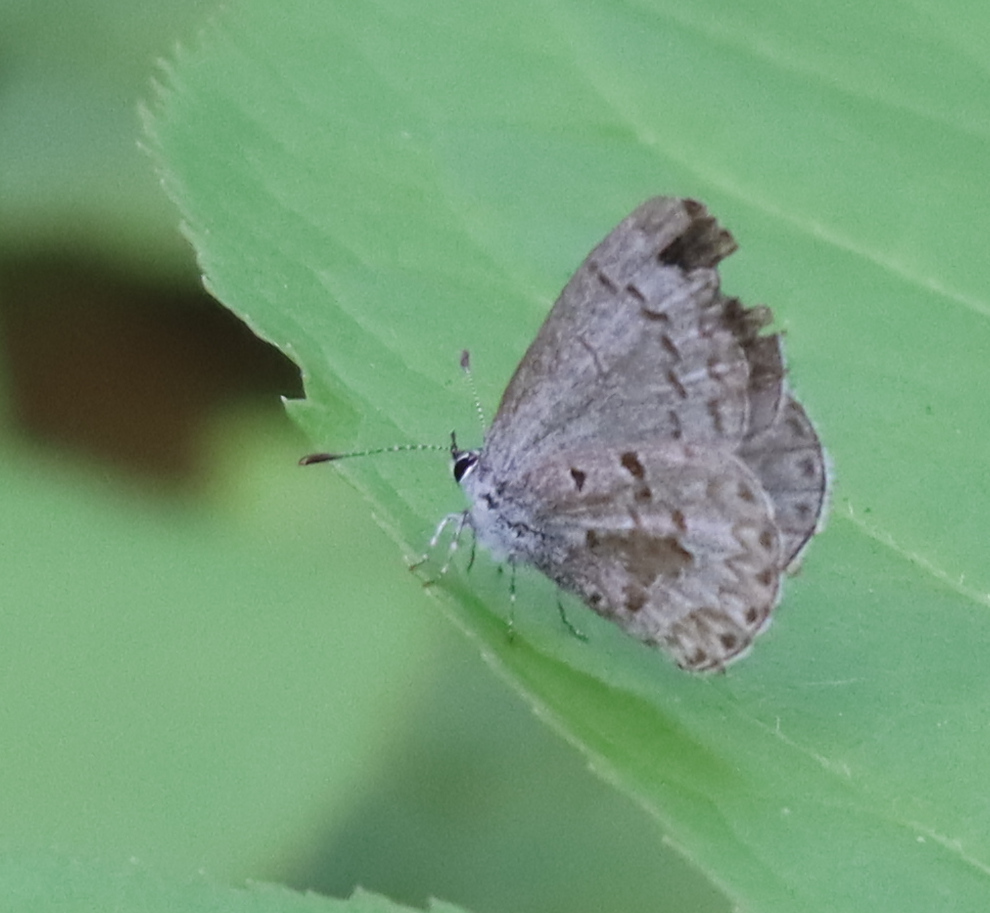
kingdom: Animalia
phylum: Arthropoda
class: Insecta
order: Lepidoptera
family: Lycaenidae
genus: Celastrina
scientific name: Celastrina lucia
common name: Lucia azure
